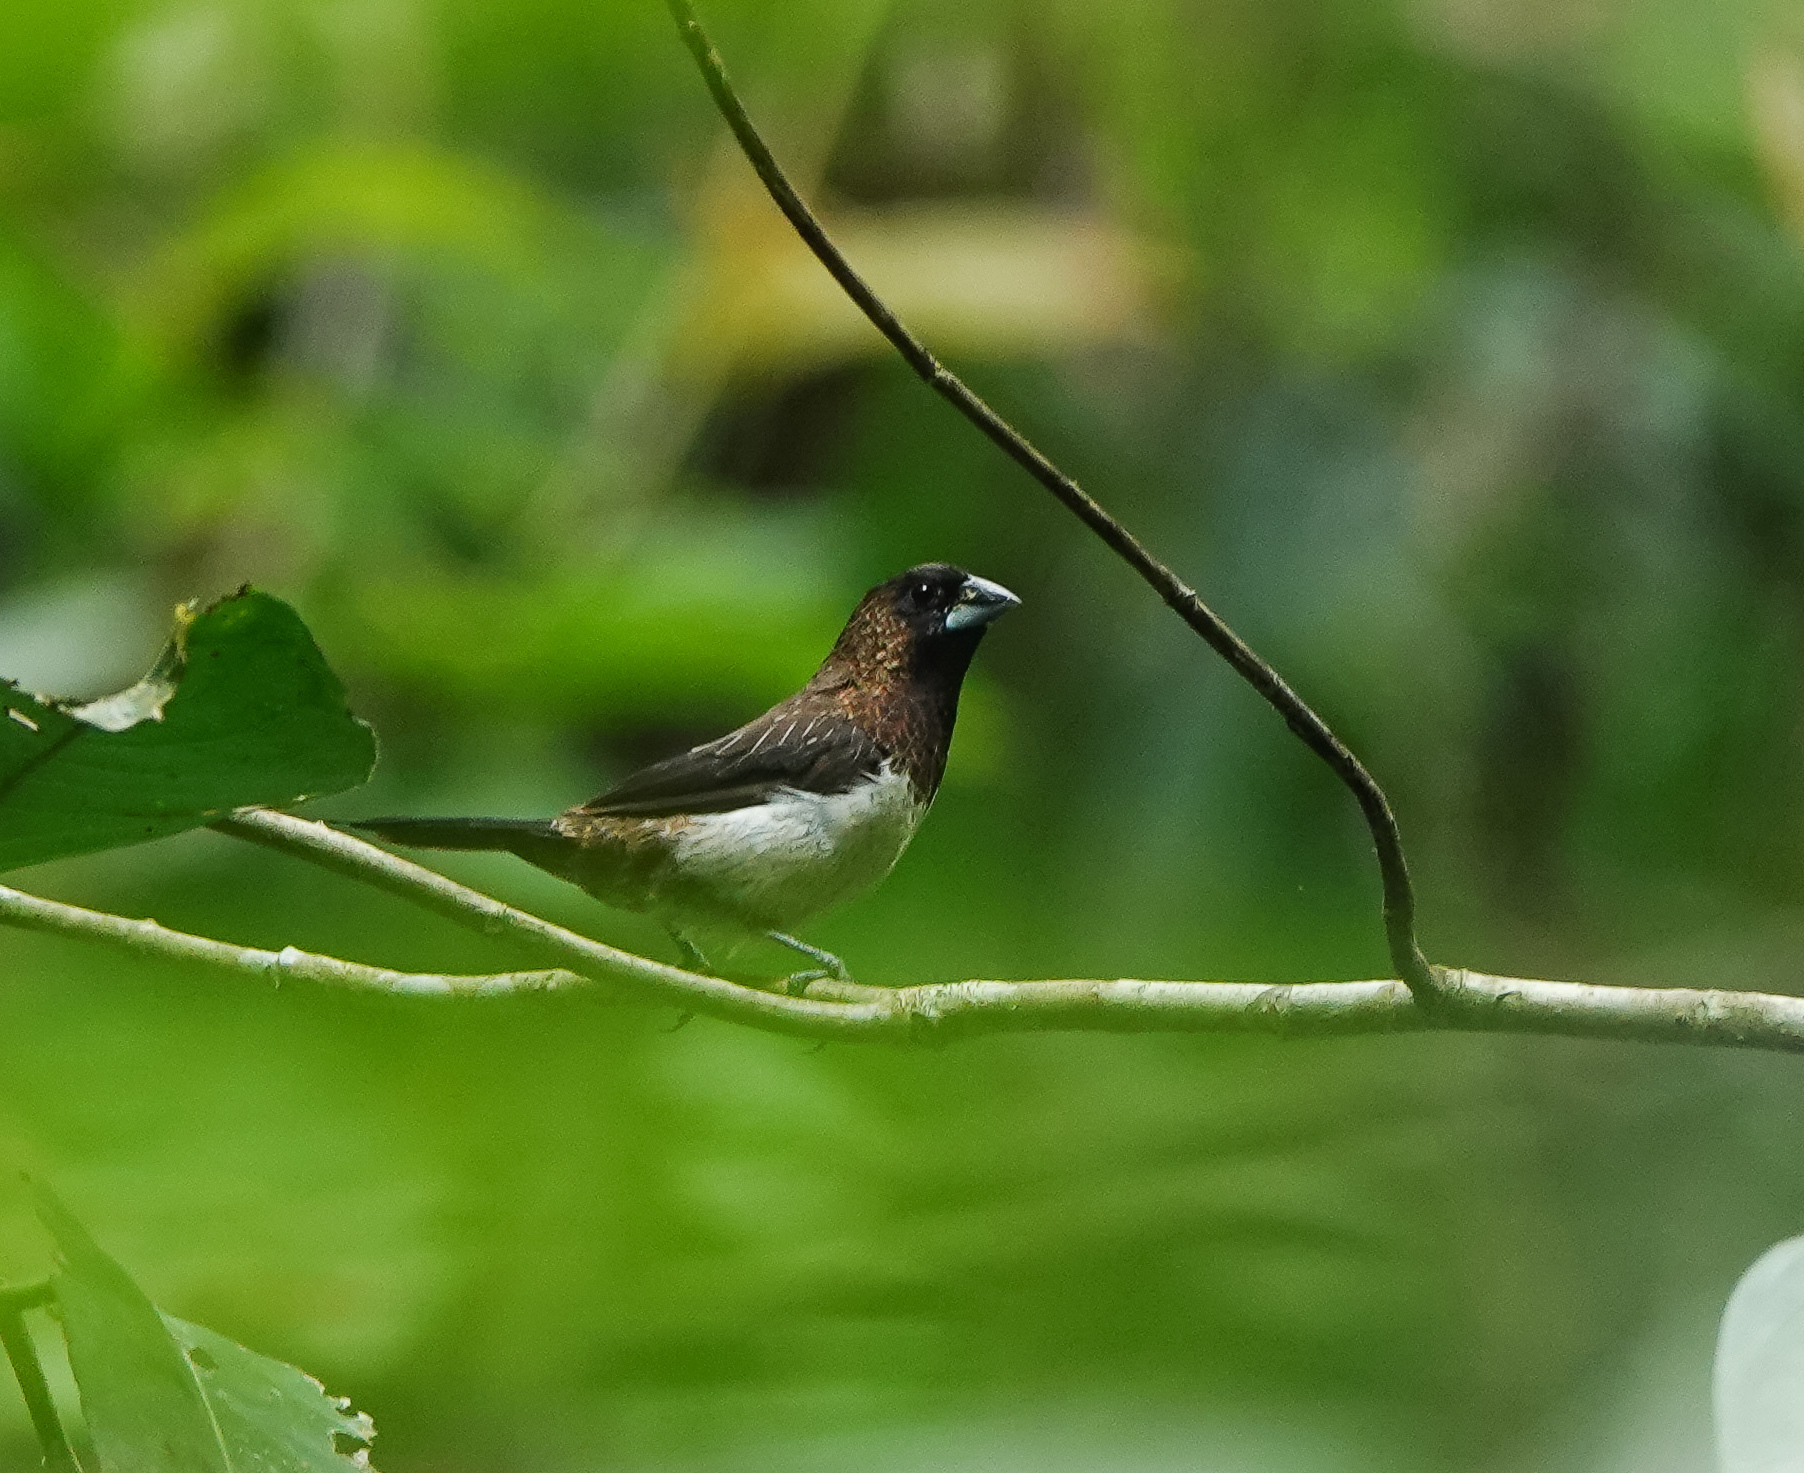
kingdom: Animalia
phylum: Chordata
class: Aves
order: Passeriformes
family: Estrildidae
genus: Lonchura
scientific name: Lonchura striata
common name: White-rumped munia
